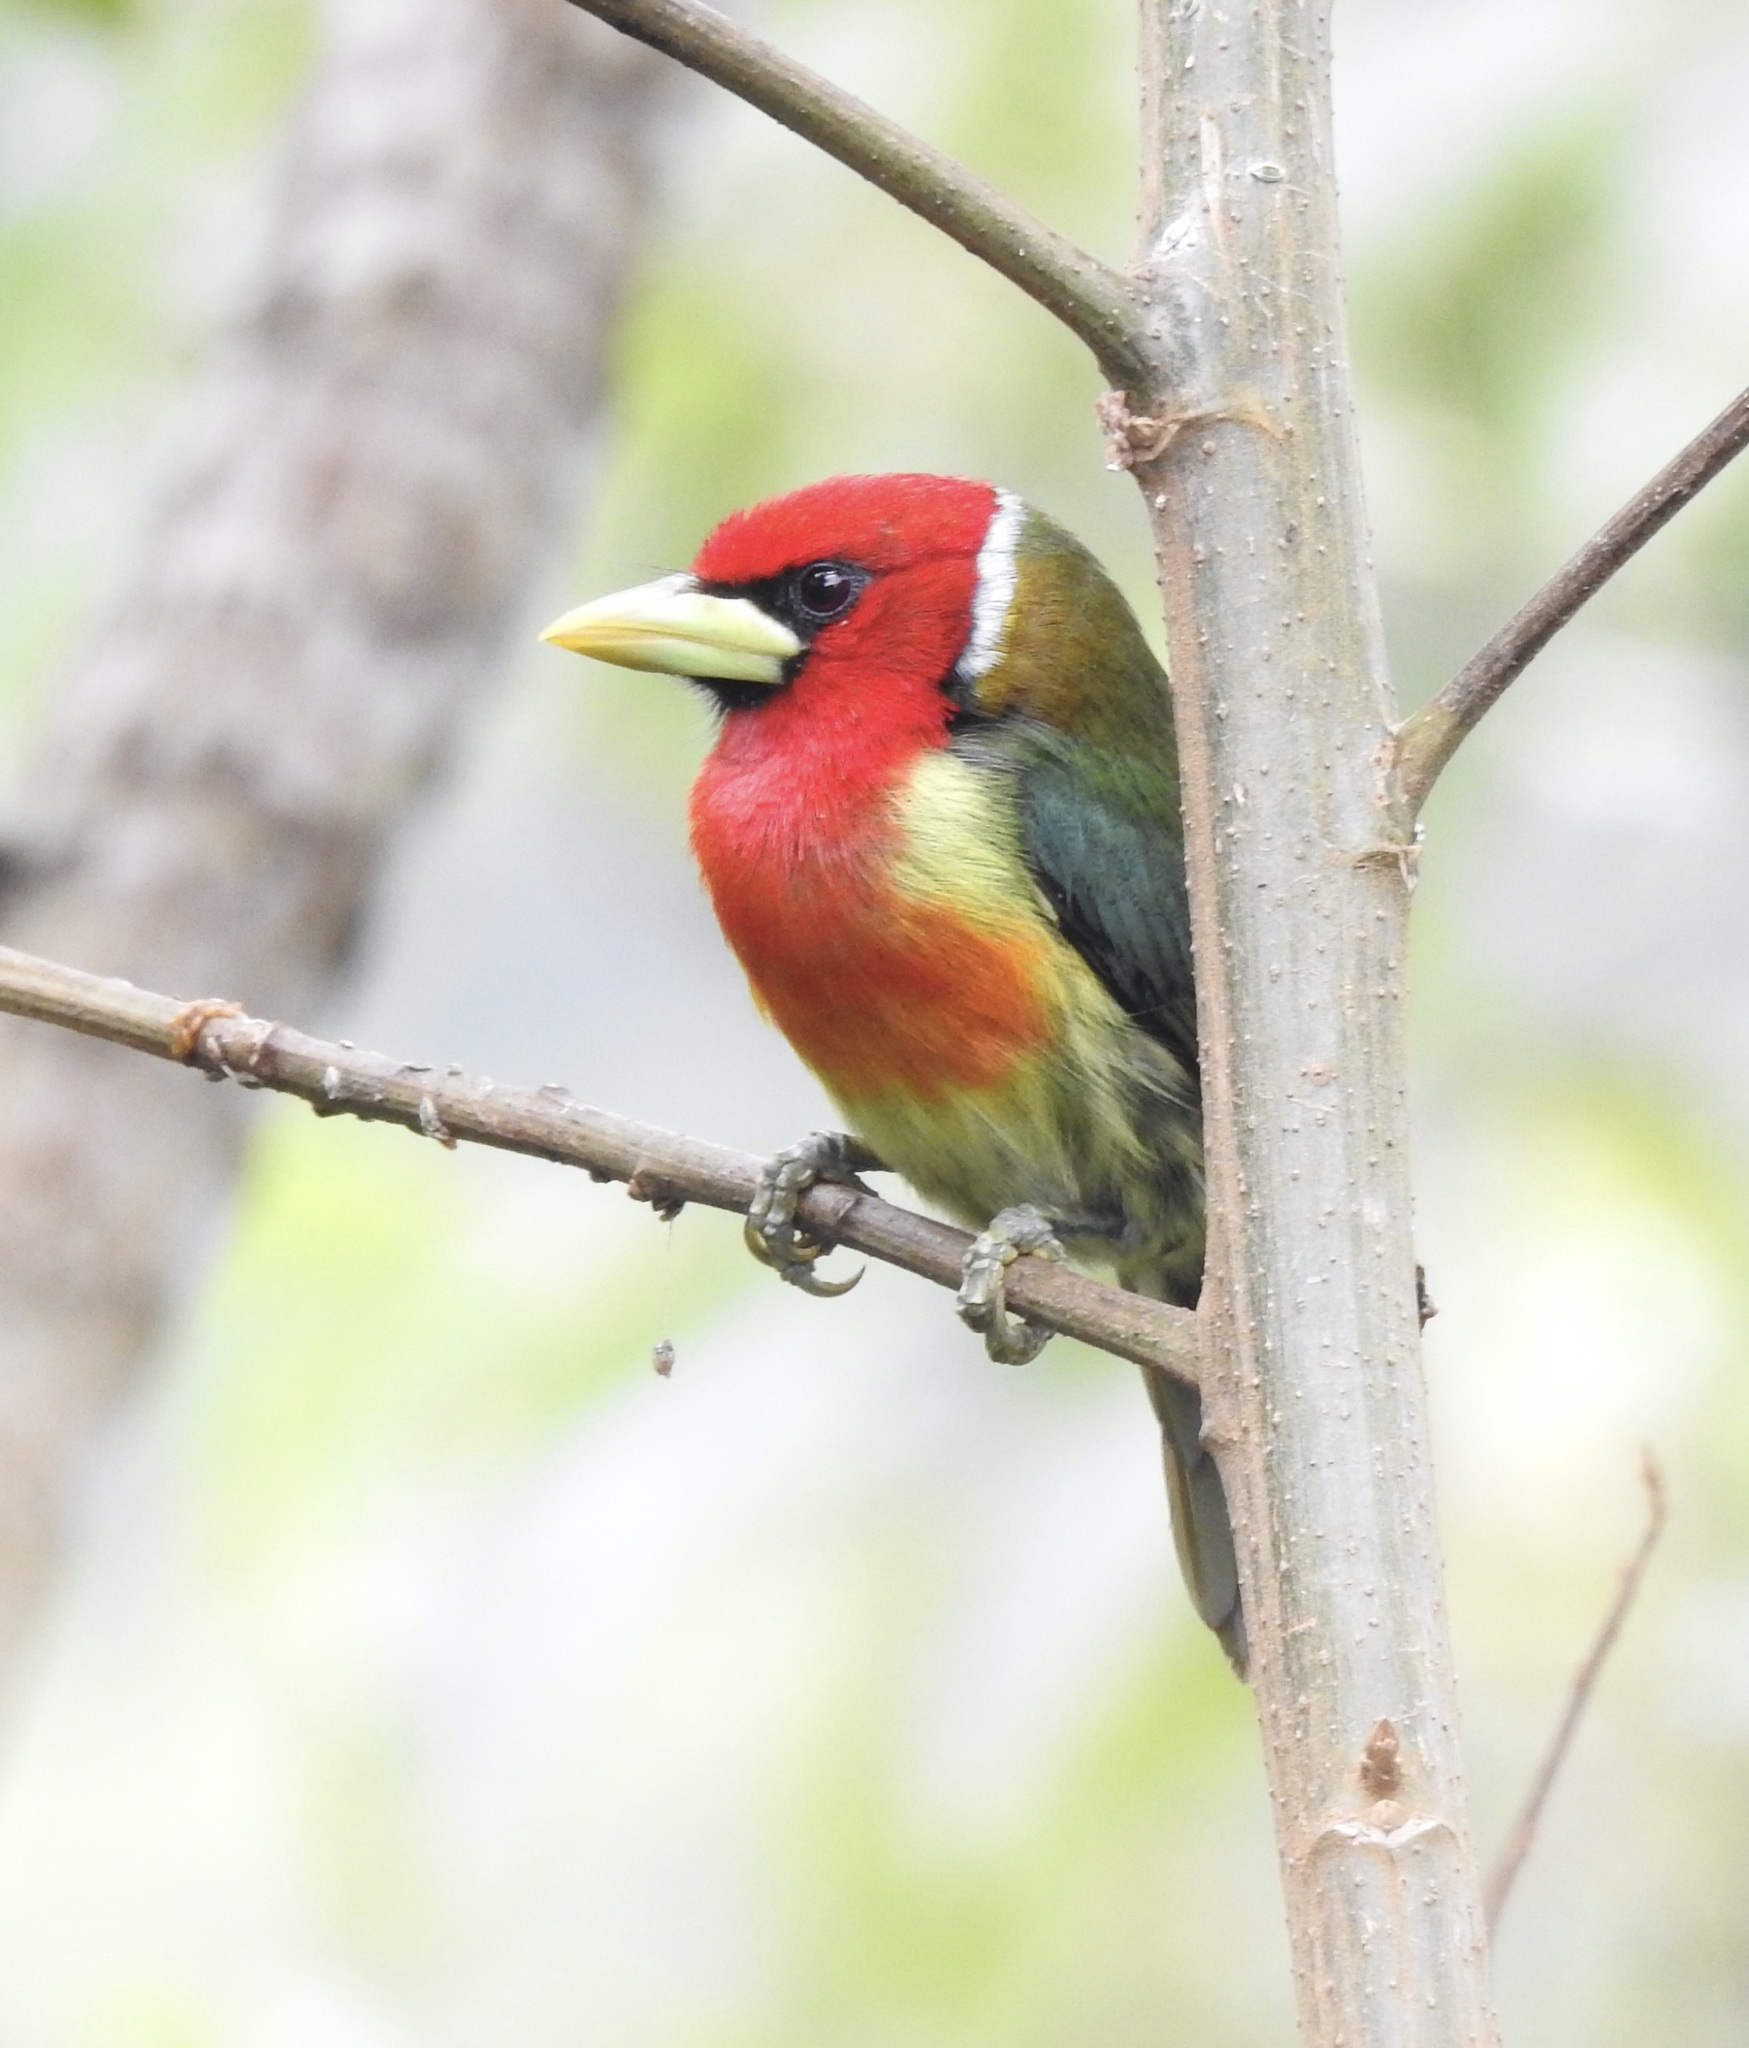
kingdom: Animalia
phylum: Chordata
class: Aves
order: Piciformes
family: Capitonidae
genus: Eubucco
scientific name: Eubucco bourcierii
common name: Red-headed barbet
